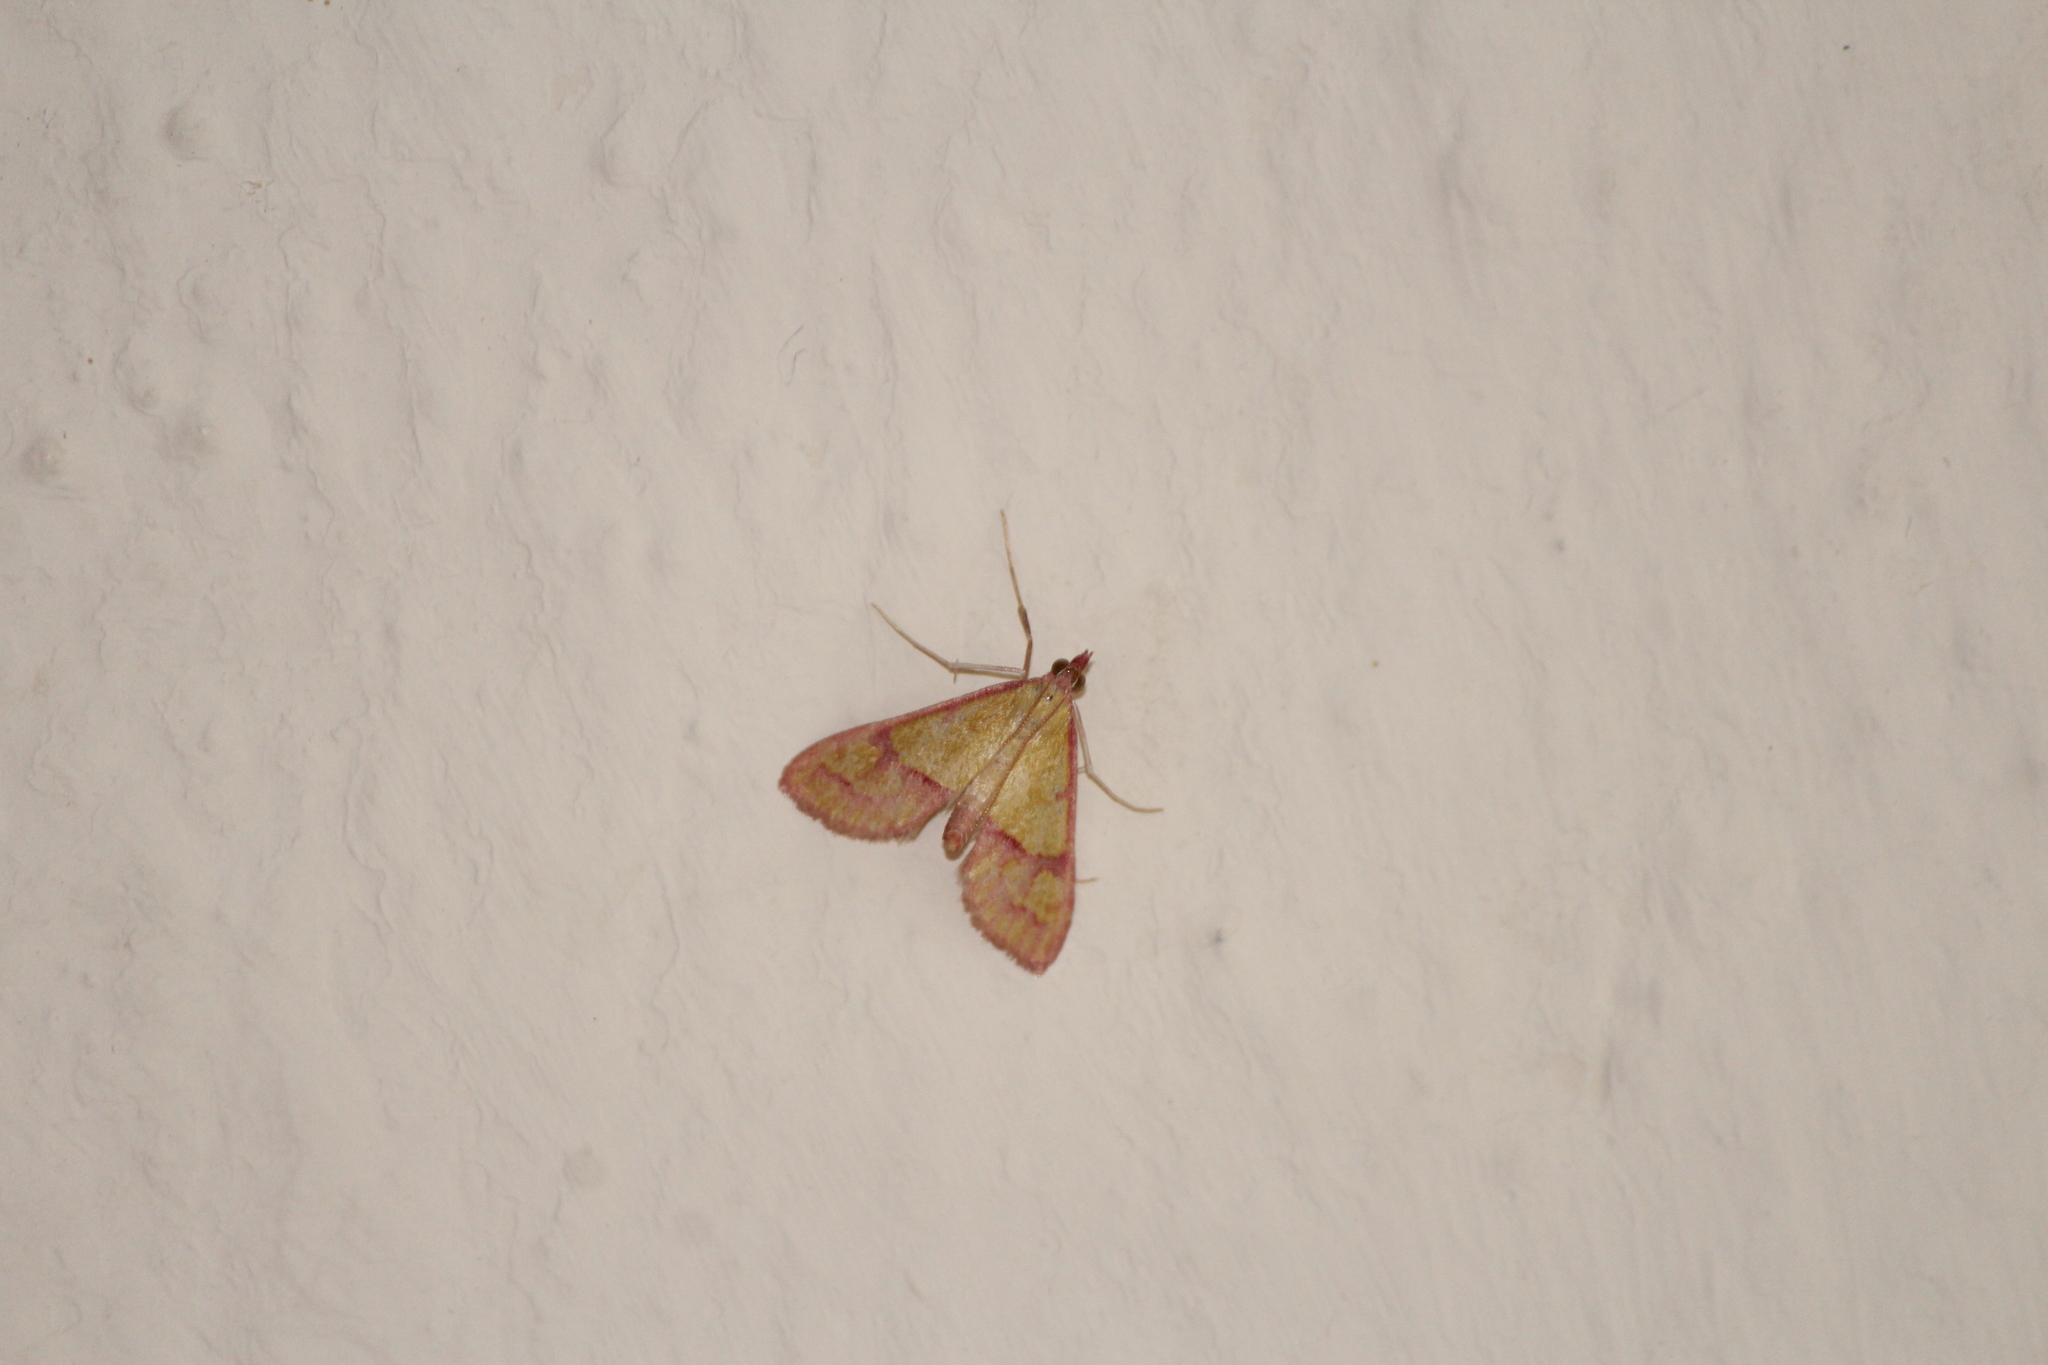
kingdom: Animalia
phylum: Arthropoda
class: Insecta
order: Lepidoptera
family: Crambidae
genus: Choristostigma
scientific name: Choristostigma perpulchralis
